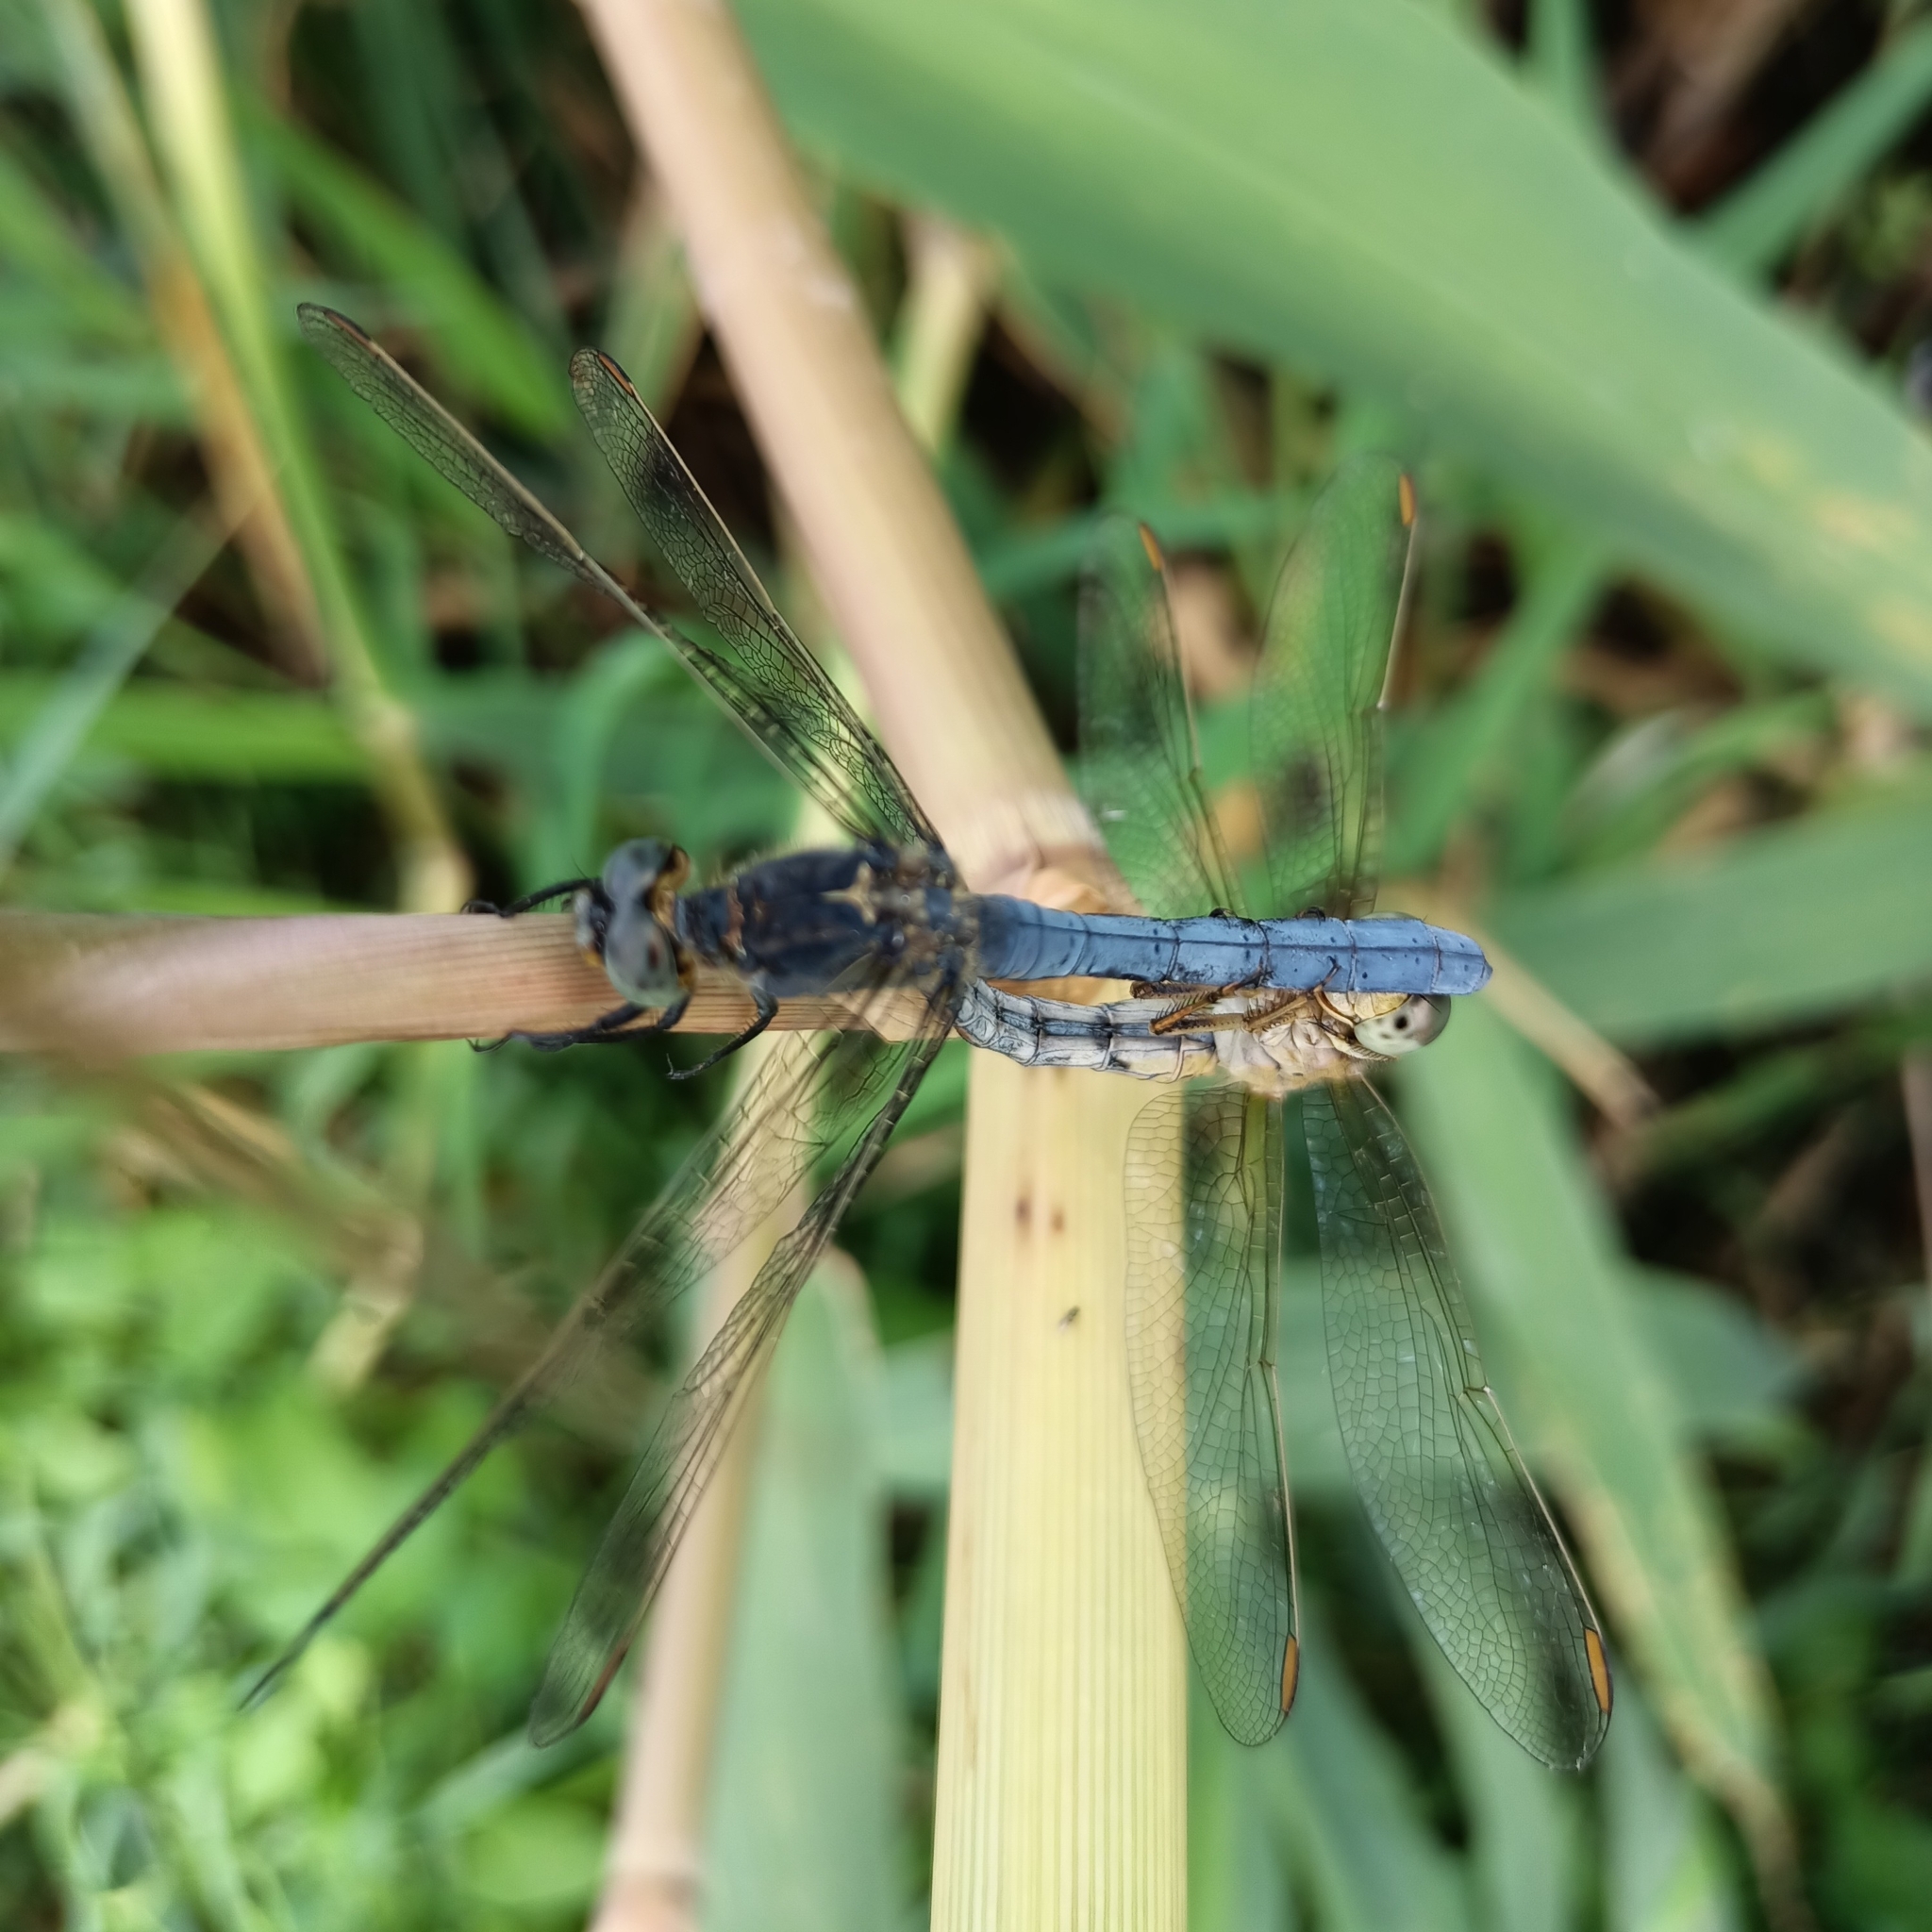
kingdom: Animalia
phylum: Arthropoda
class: Insecta
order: Odonata
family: Libellulidae
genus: Orthetrum
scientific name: Orthetrum coerulescens
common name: Keeled skimmer
